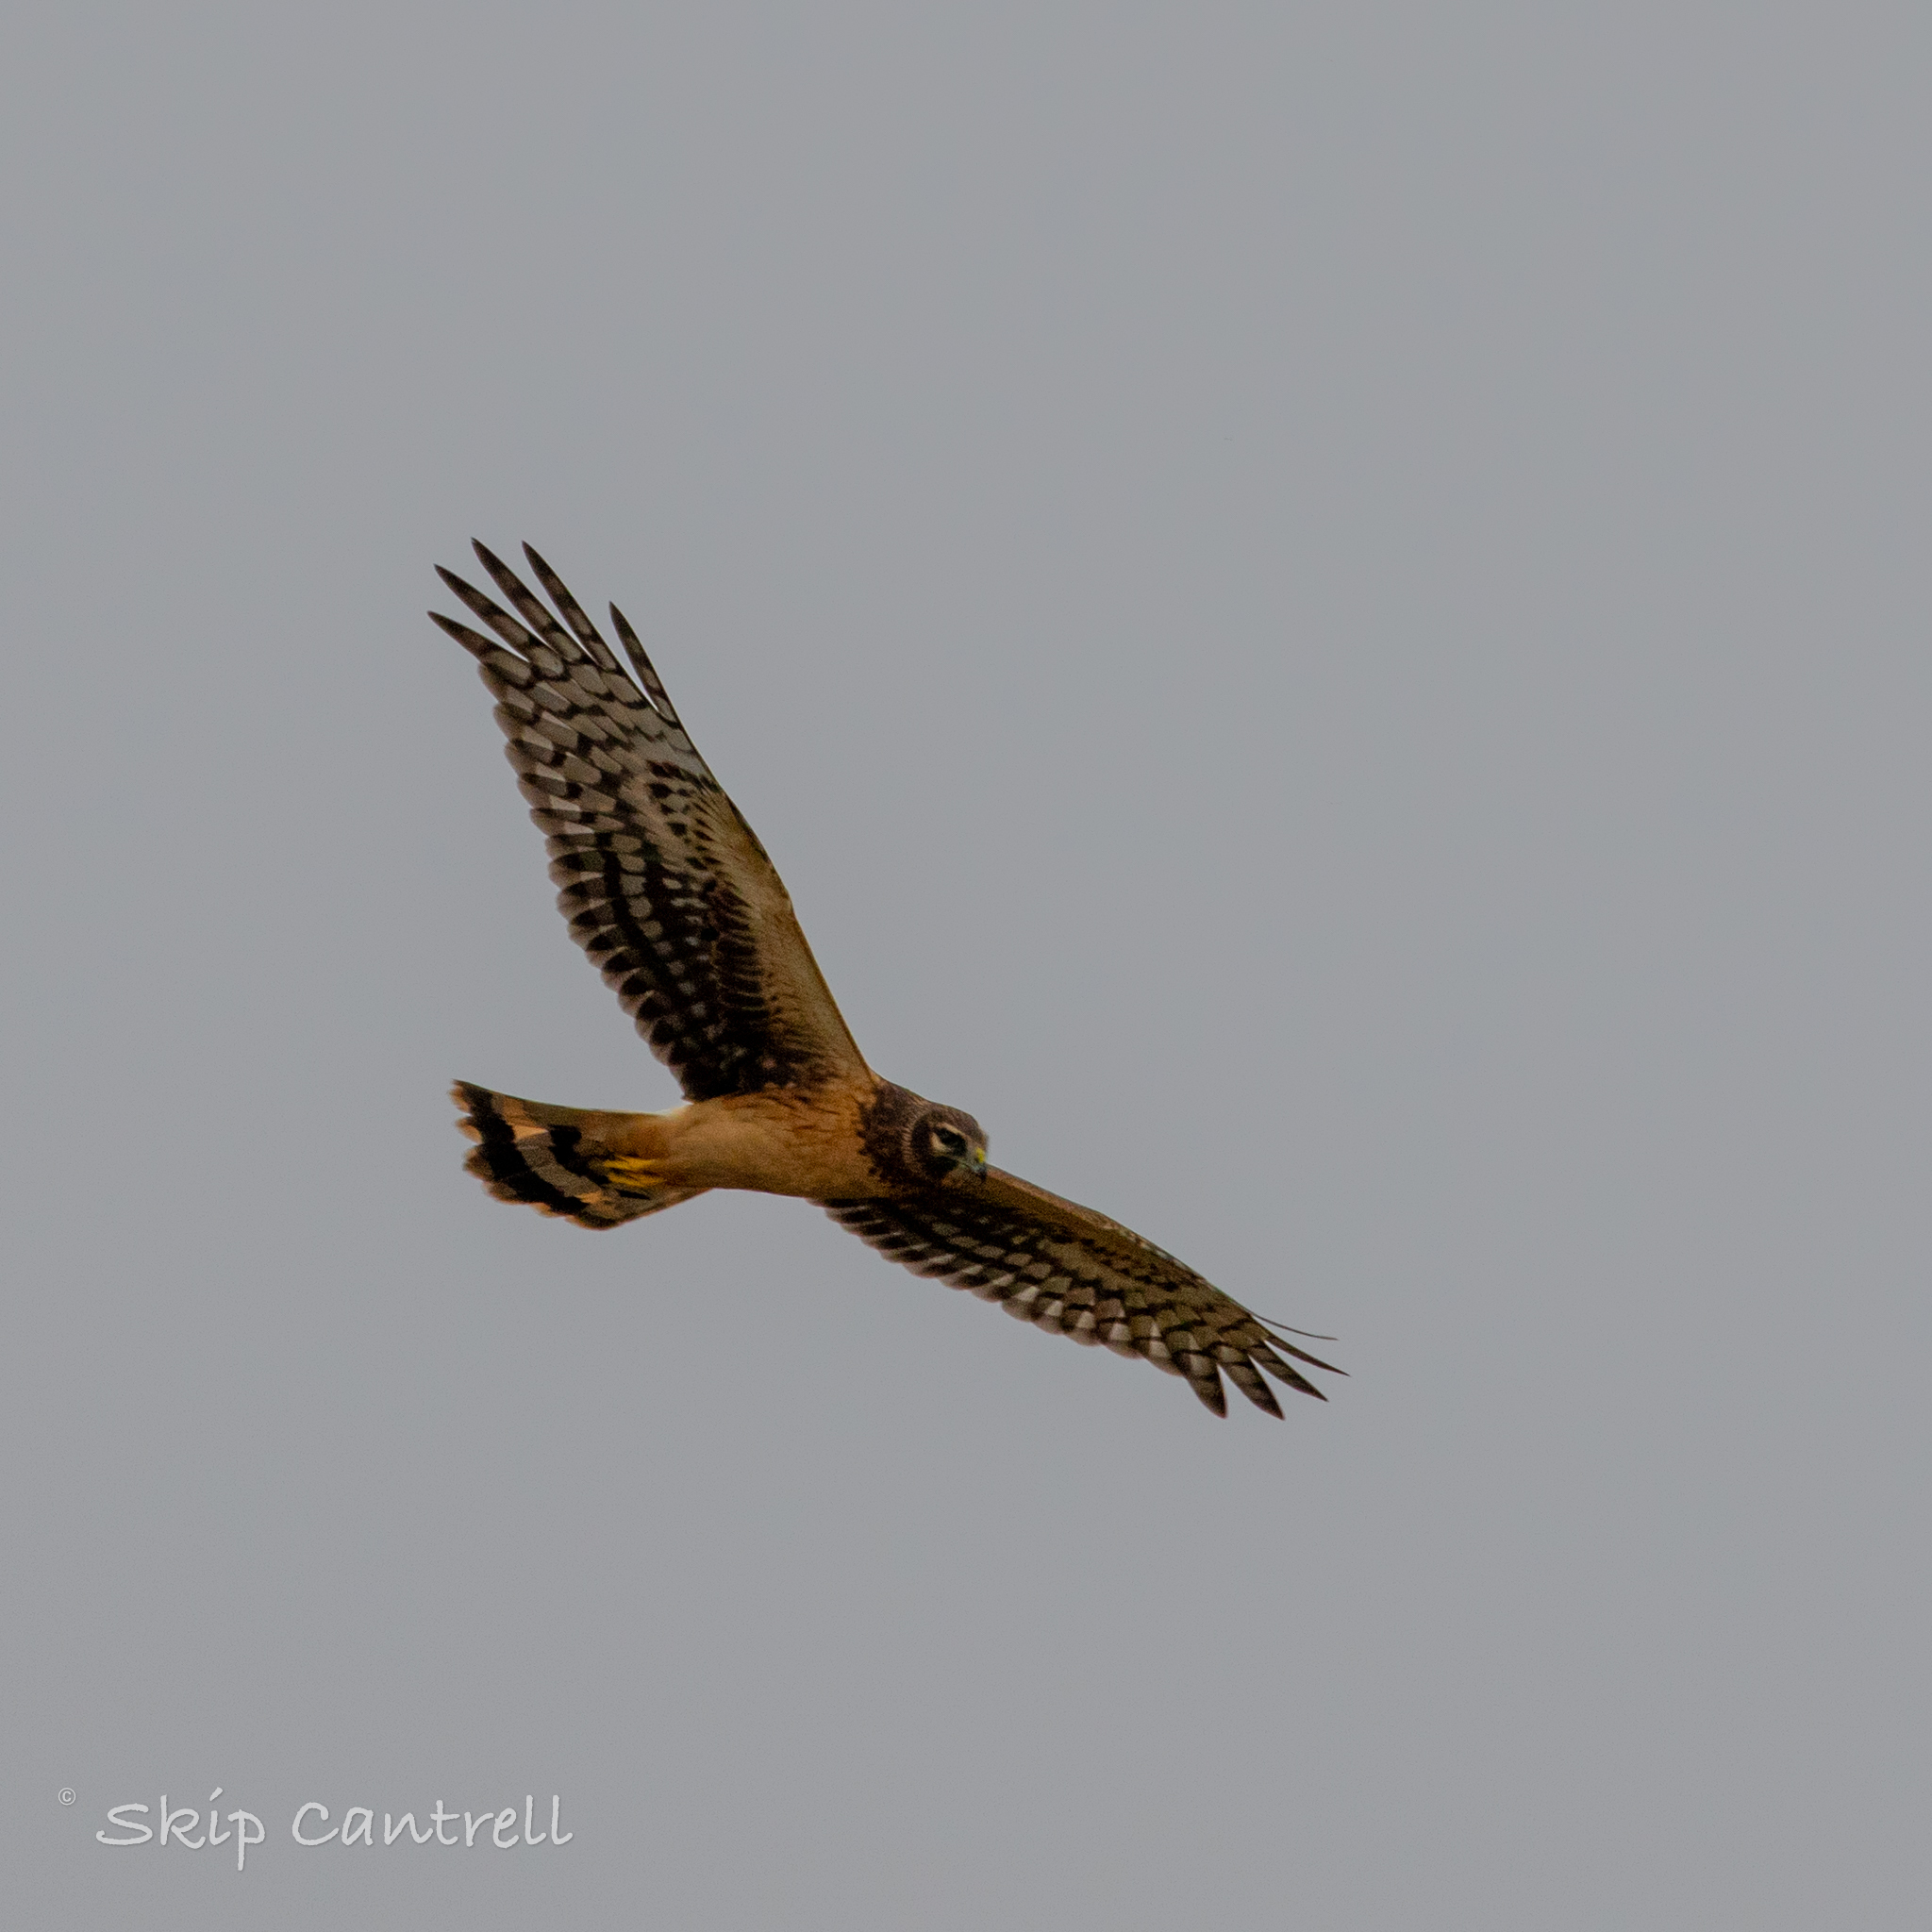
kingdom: Animalia
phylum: Chordata
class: Aves
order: Accipitriformes
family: Accipitridae
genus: Circus
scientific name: Circus cyaneus
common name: Hen harrier
